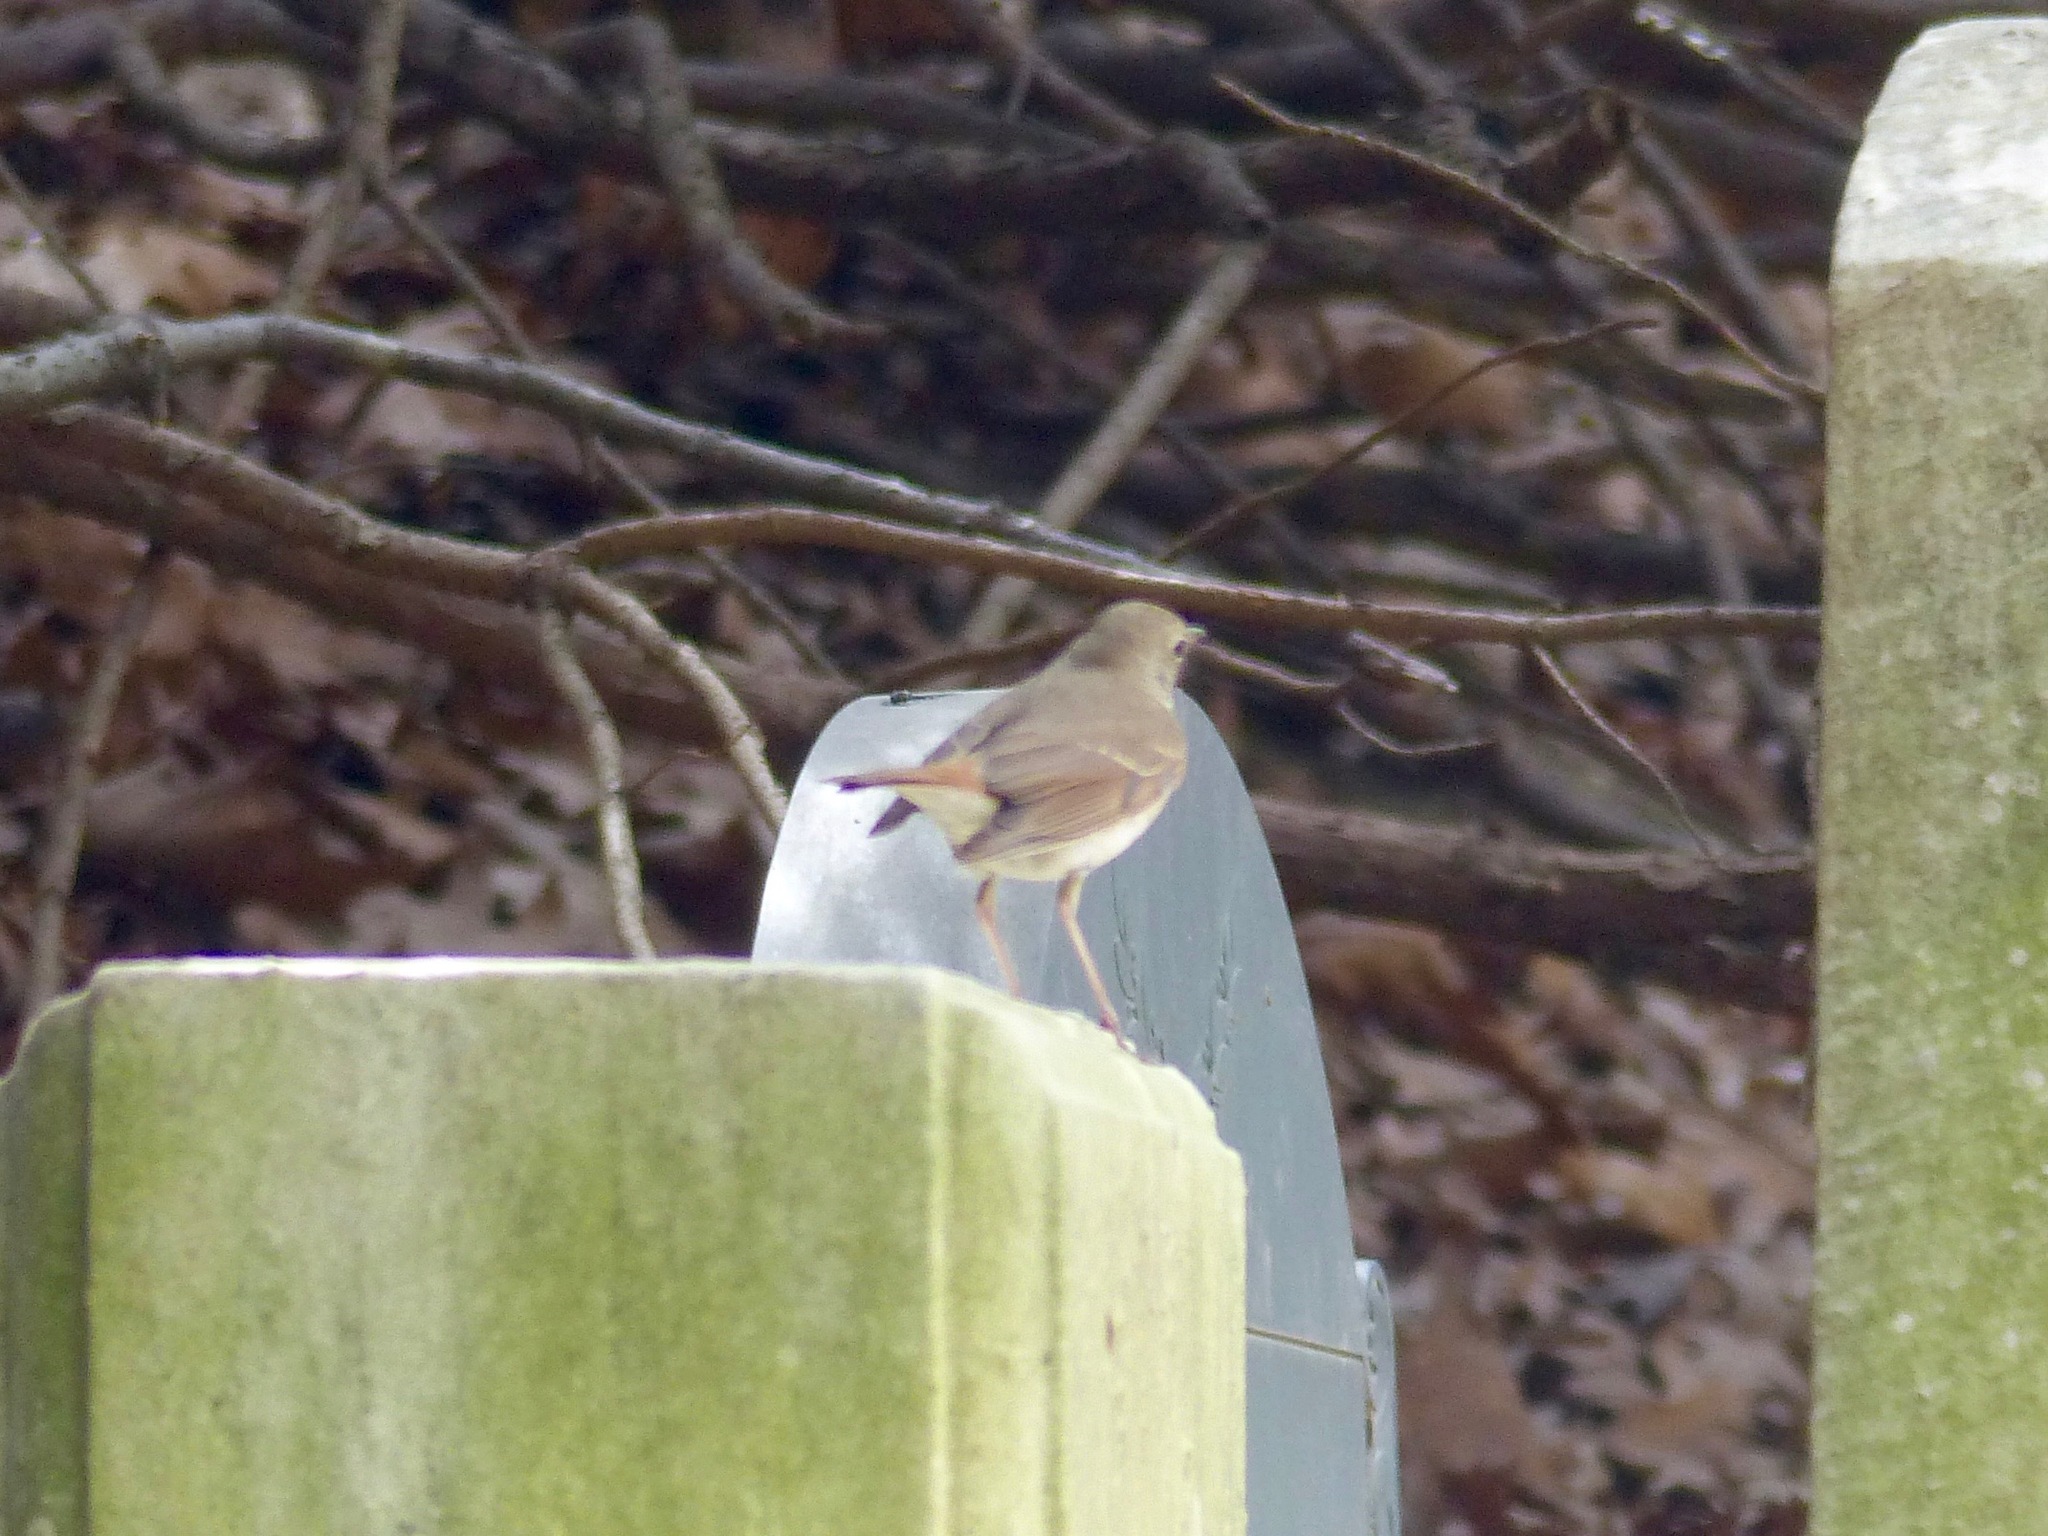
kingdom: Animalia
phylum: Chordata
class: Aves
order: Passeriformes
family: Turdidae
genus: Catharus
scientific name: Catharus guttatus
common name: Hermit thrush
